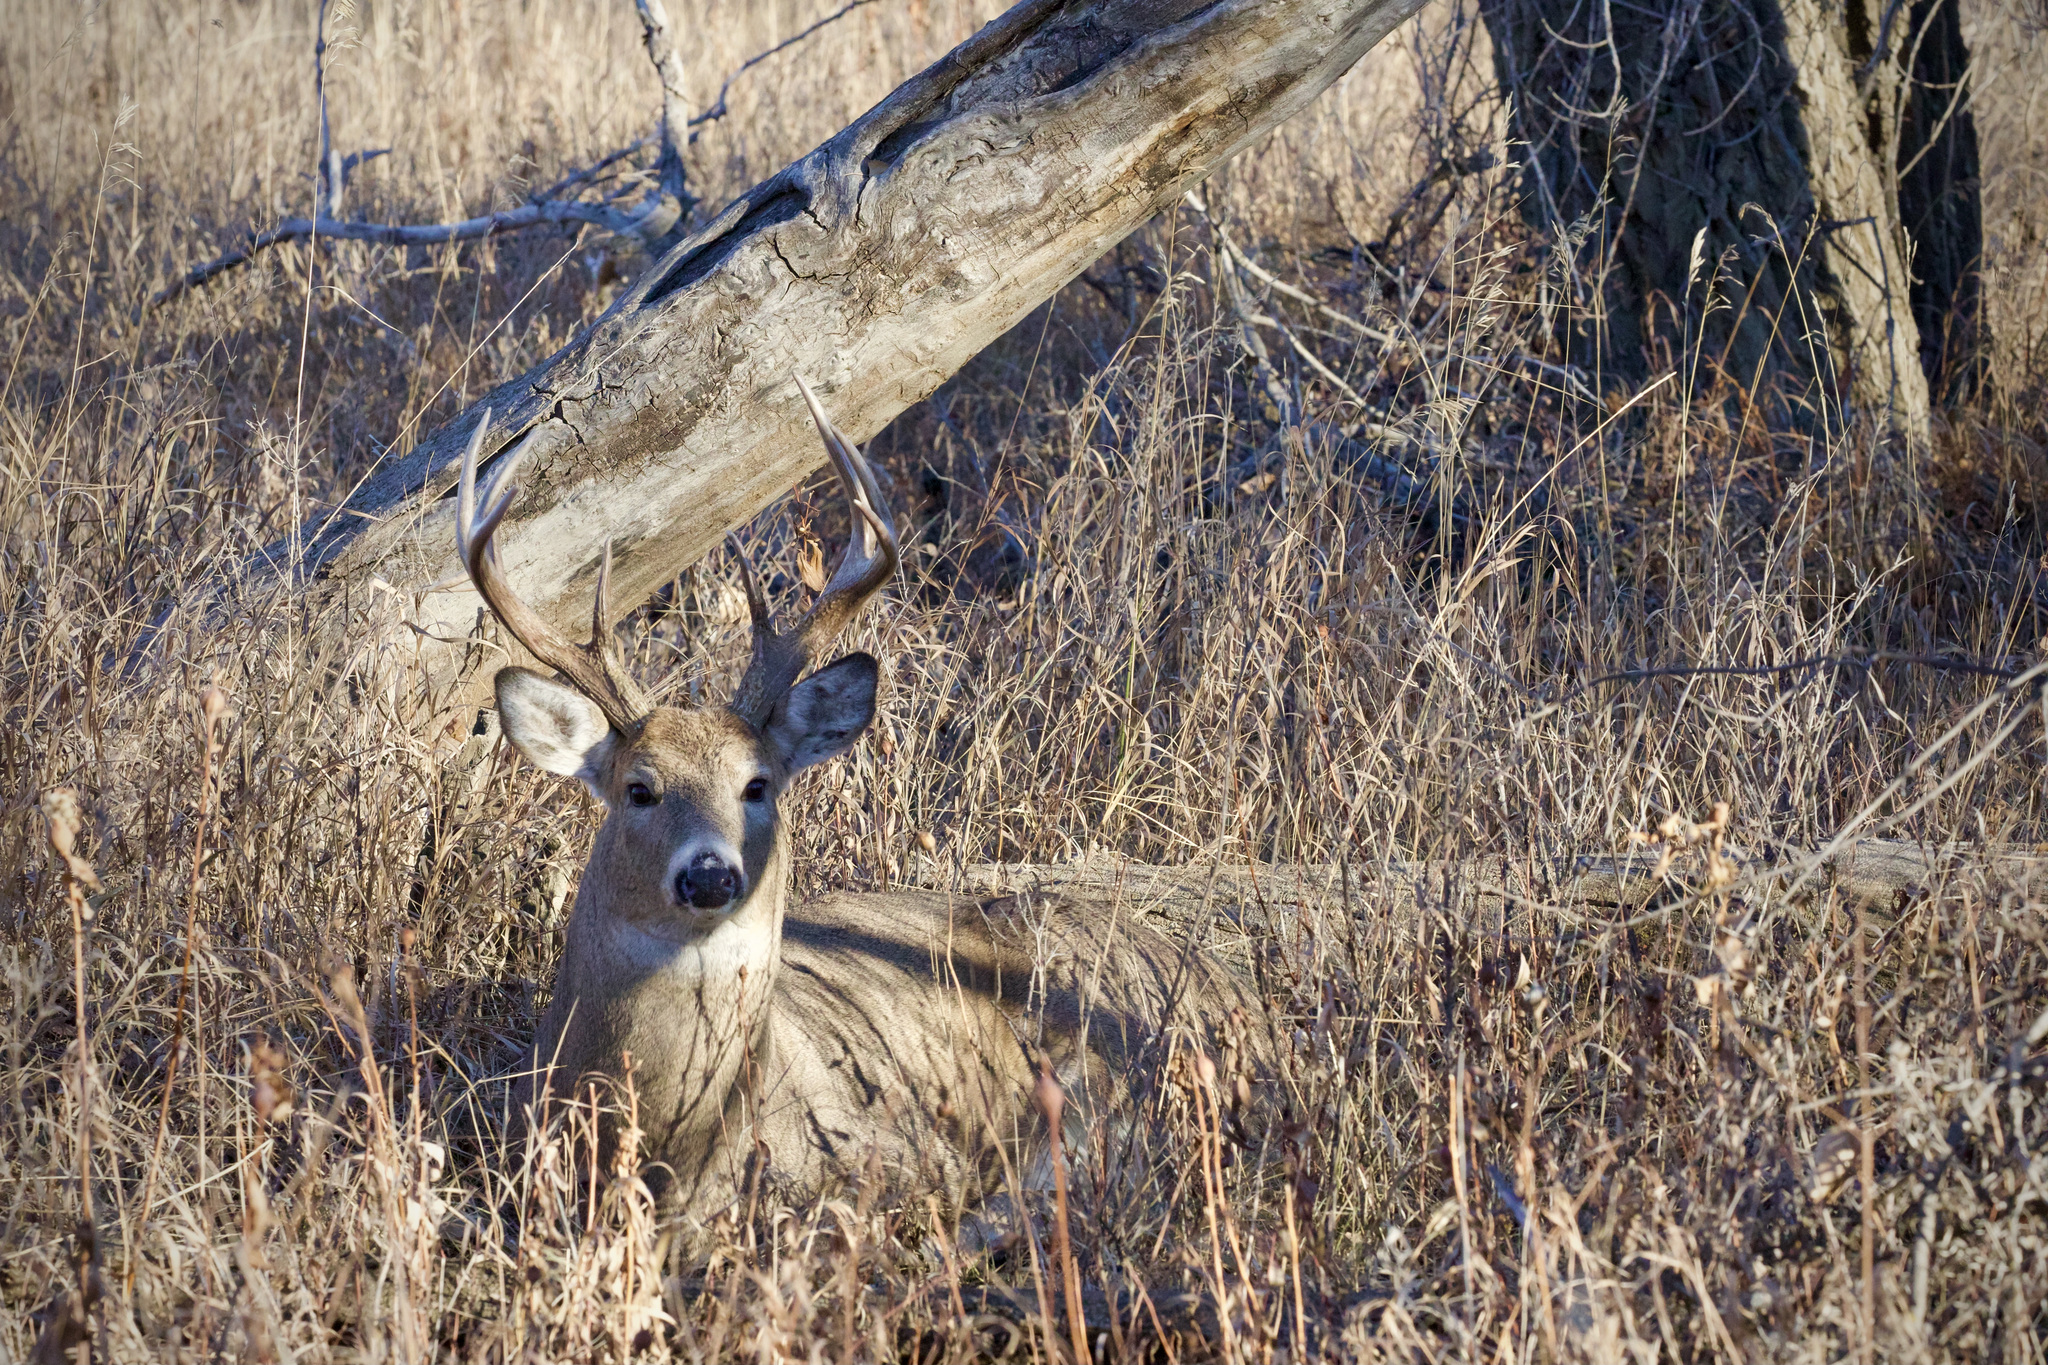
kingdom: Animalia
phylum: Chordata
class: Mammalia
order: Artiodactyla
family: Cervidae
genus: Odocoileus
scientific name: Odocoileus virginianus
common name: White-tailed deer
